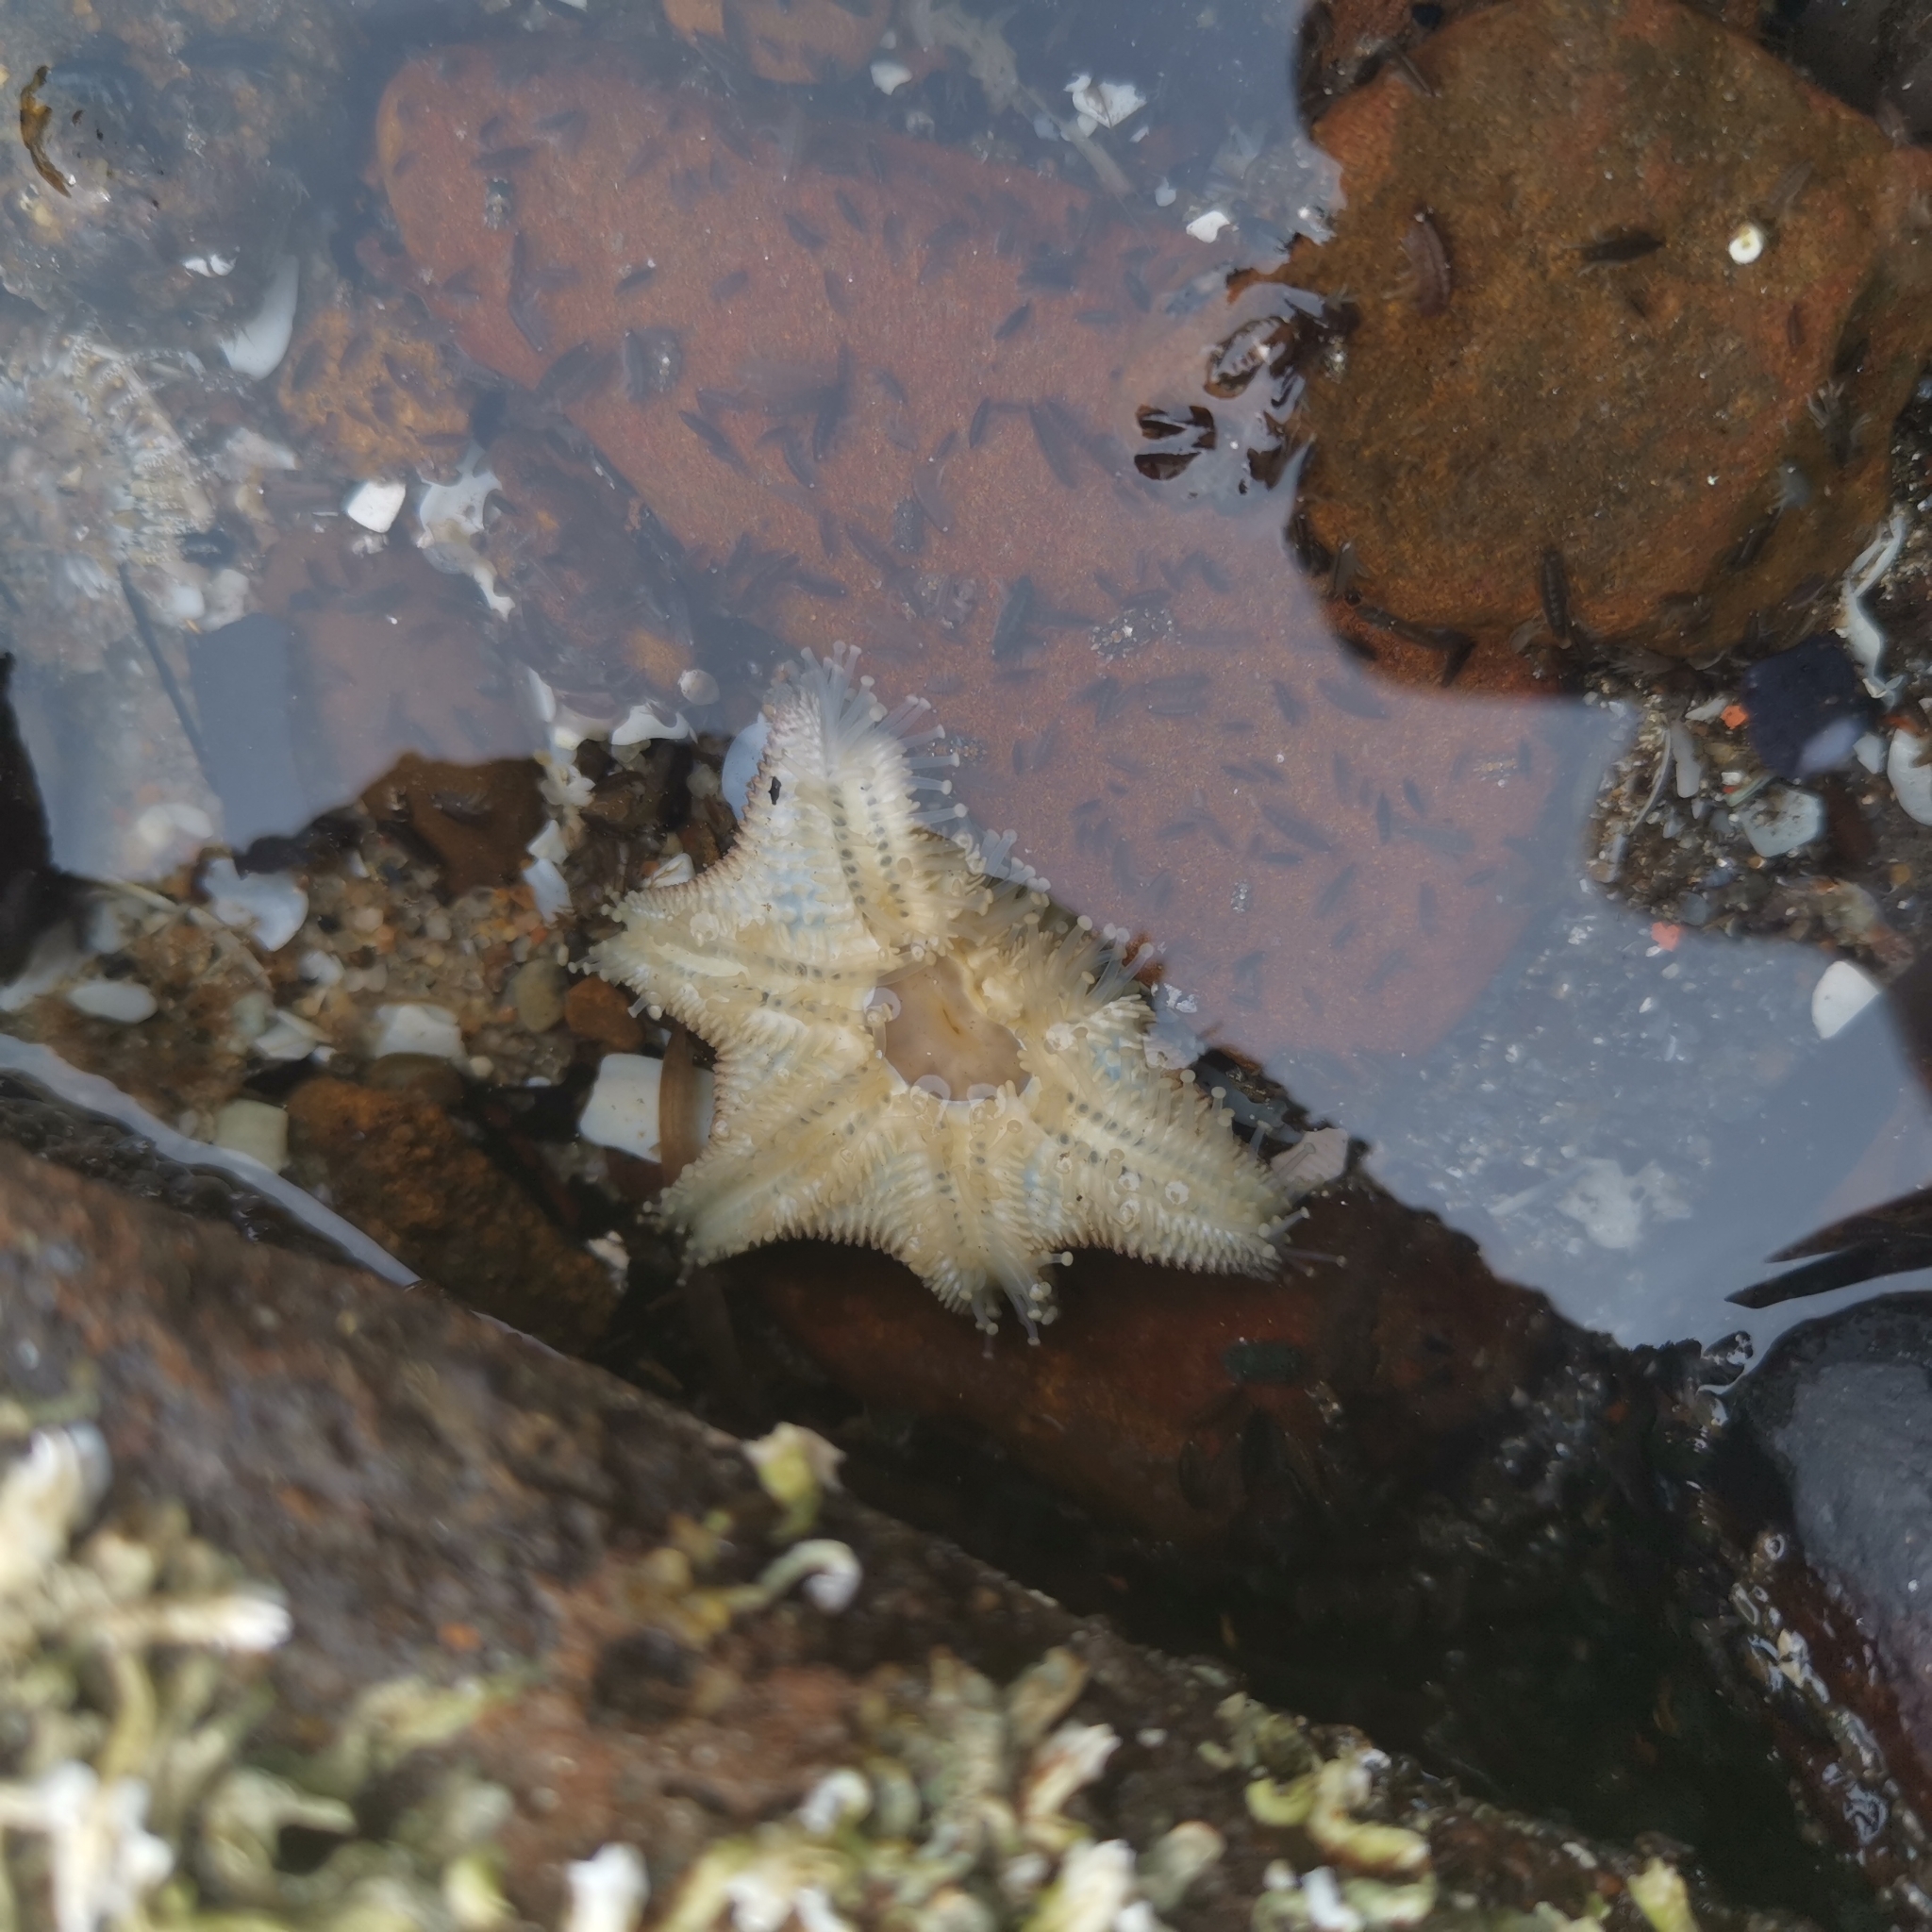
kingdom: Animalia
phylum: Echinodermata
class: Asteroidea
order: Valvatida
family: Asterinidae
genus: Meridiastra
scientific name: Meridiastra calcar
